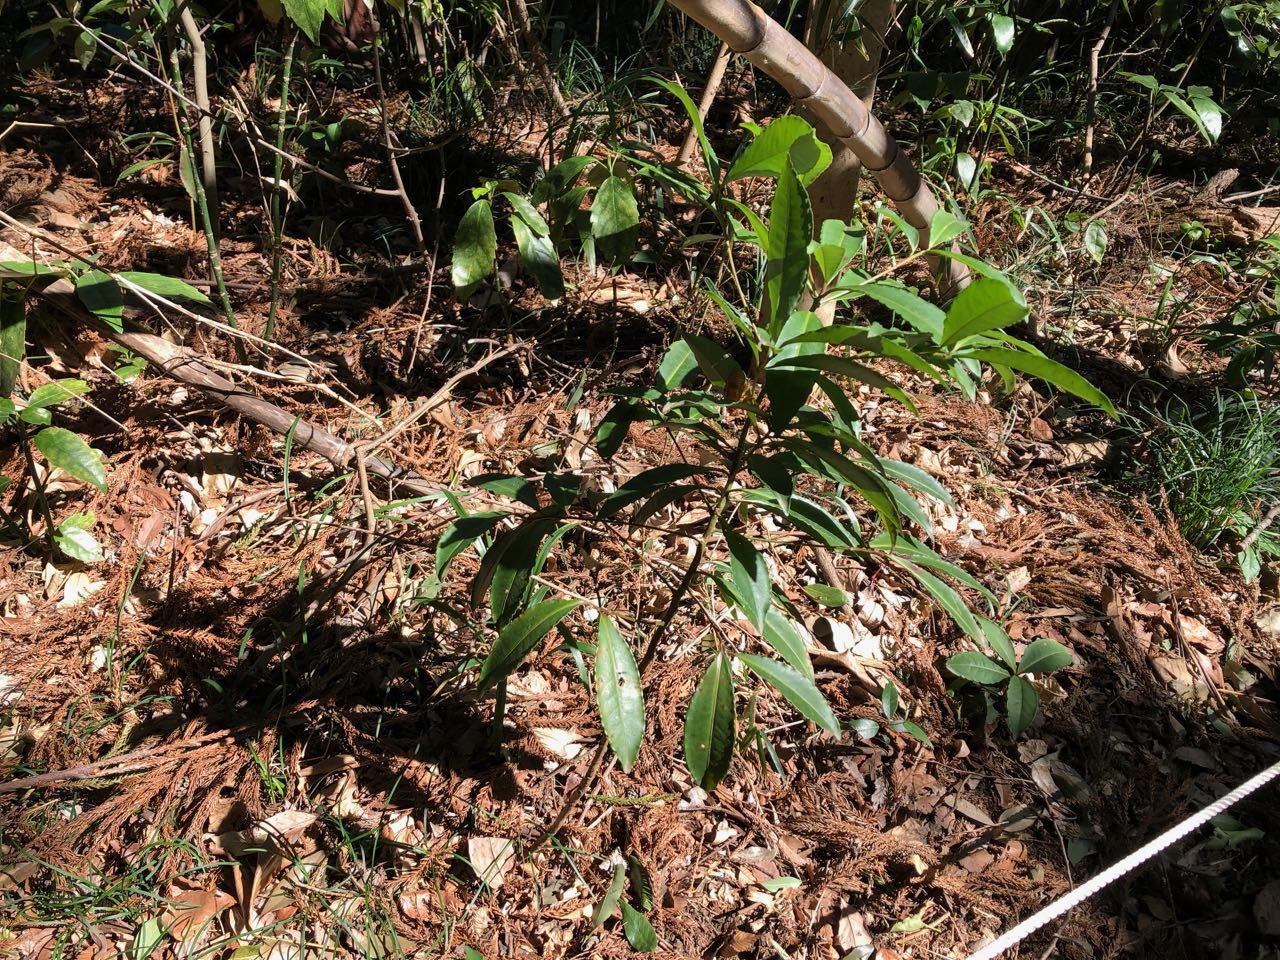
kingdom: Plantae
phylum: Tracheophyta
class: Magnoliopsida
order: Ericales
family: Primulaceae
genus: Ardisia
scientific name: Ardisia crenata
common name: Hen's eyes
